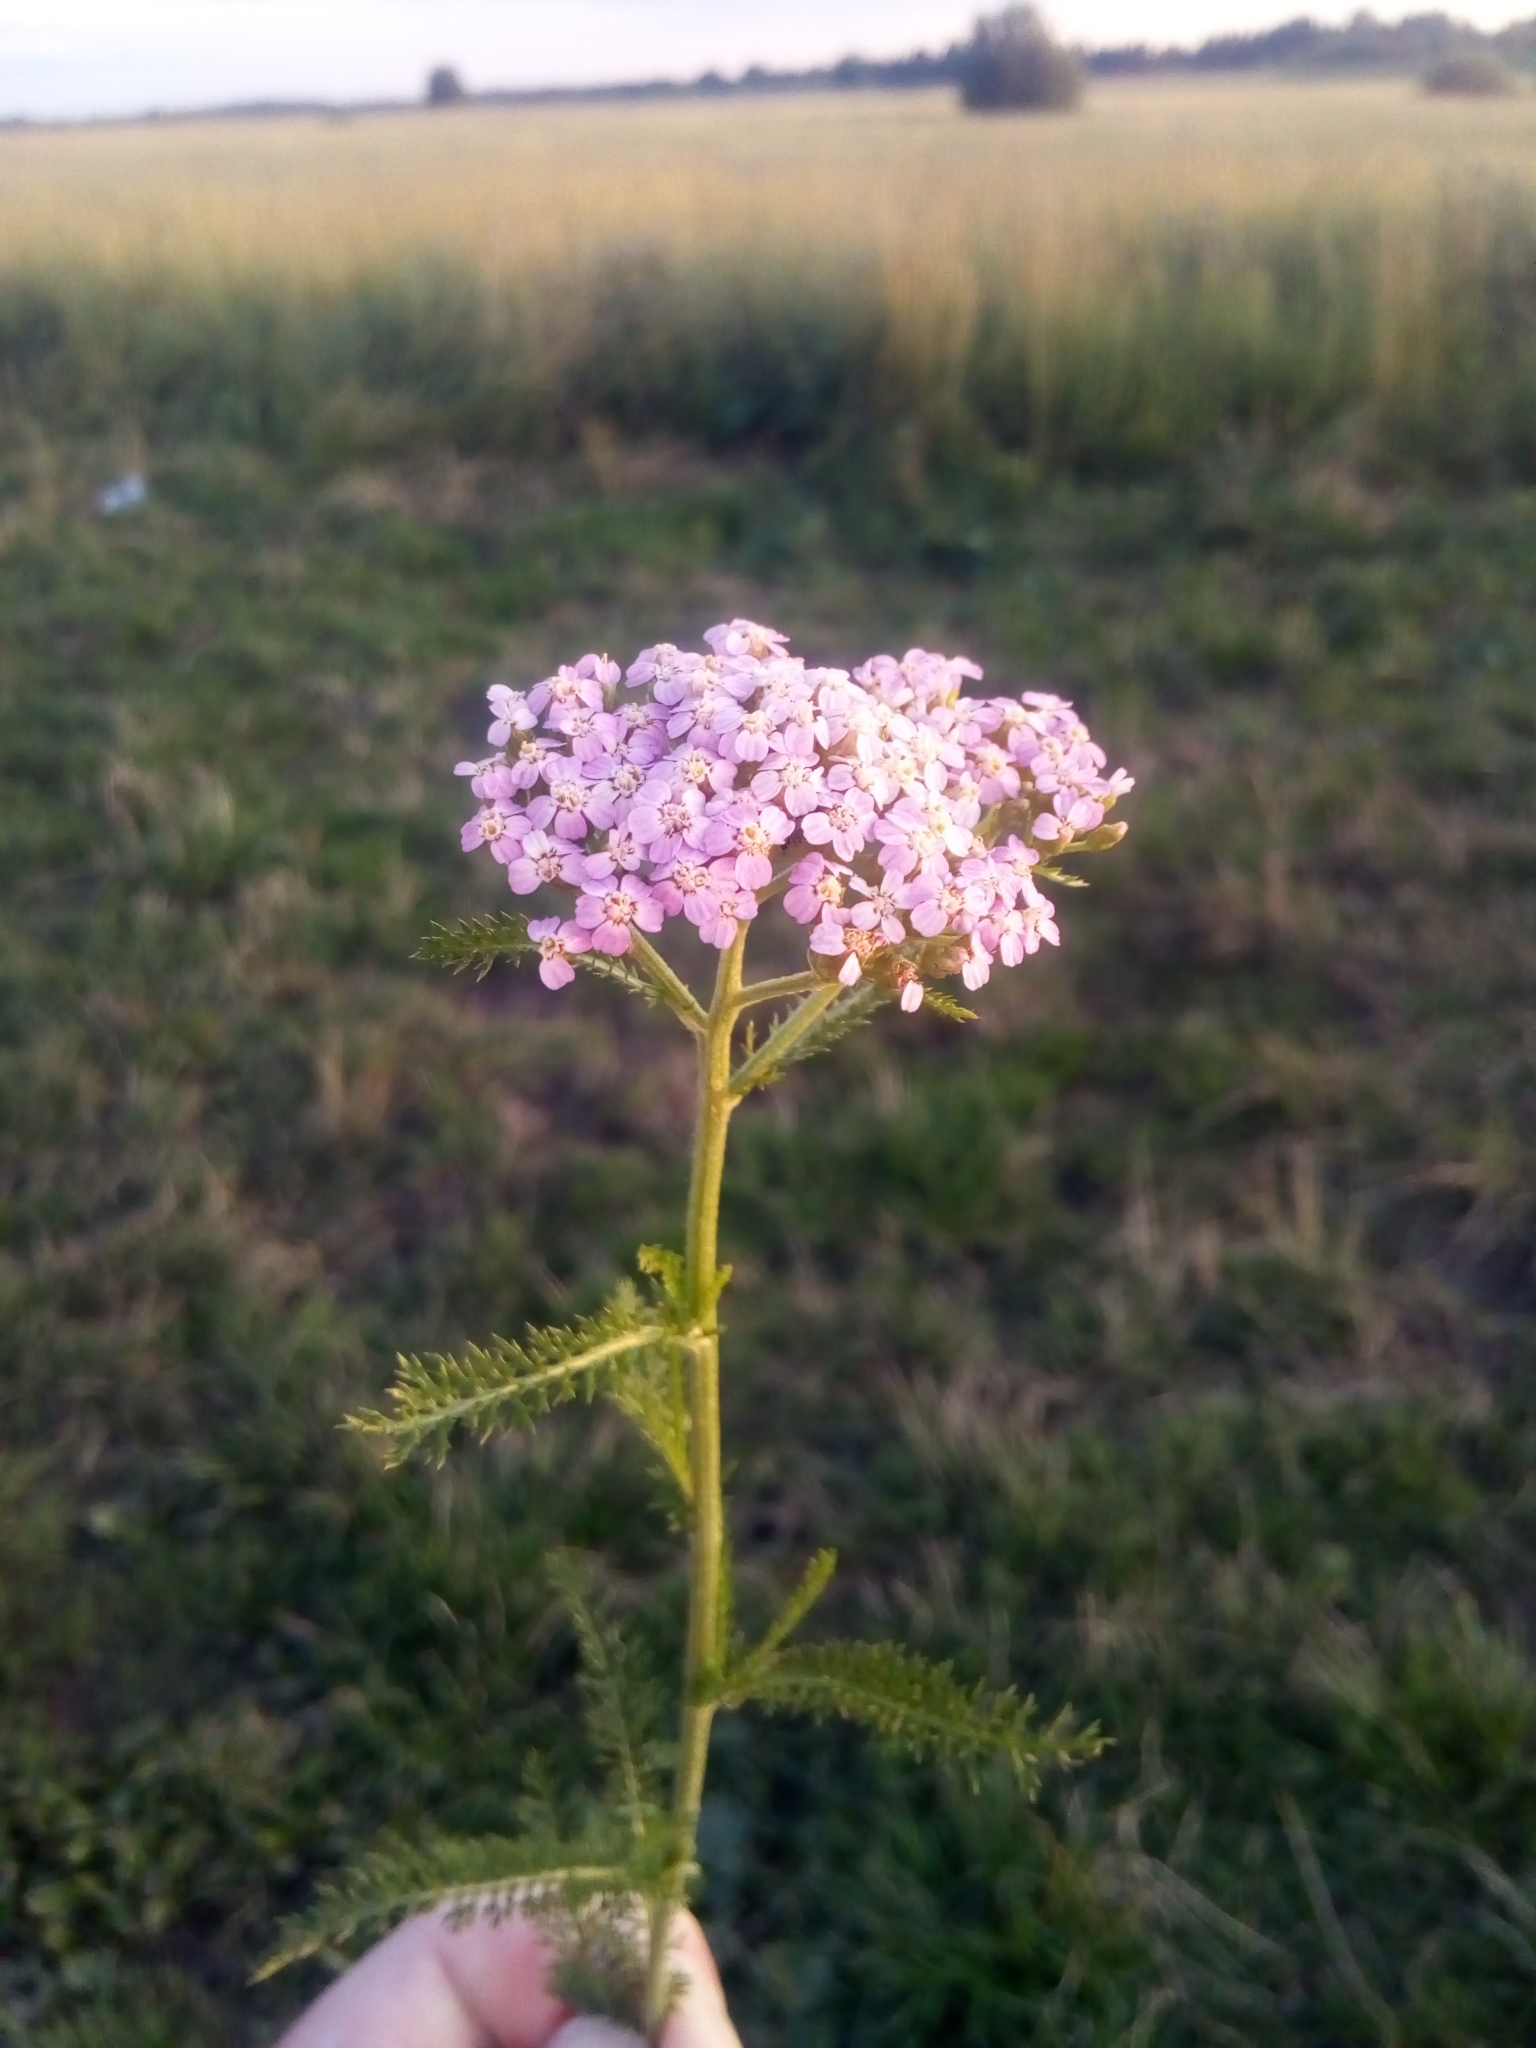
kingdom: Plantae
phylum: Tracheophyta
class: Magnoliopsida
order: Asterales
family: Asteraceae
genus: Achillea
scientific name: Achillea millefolium
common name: Yarrow
